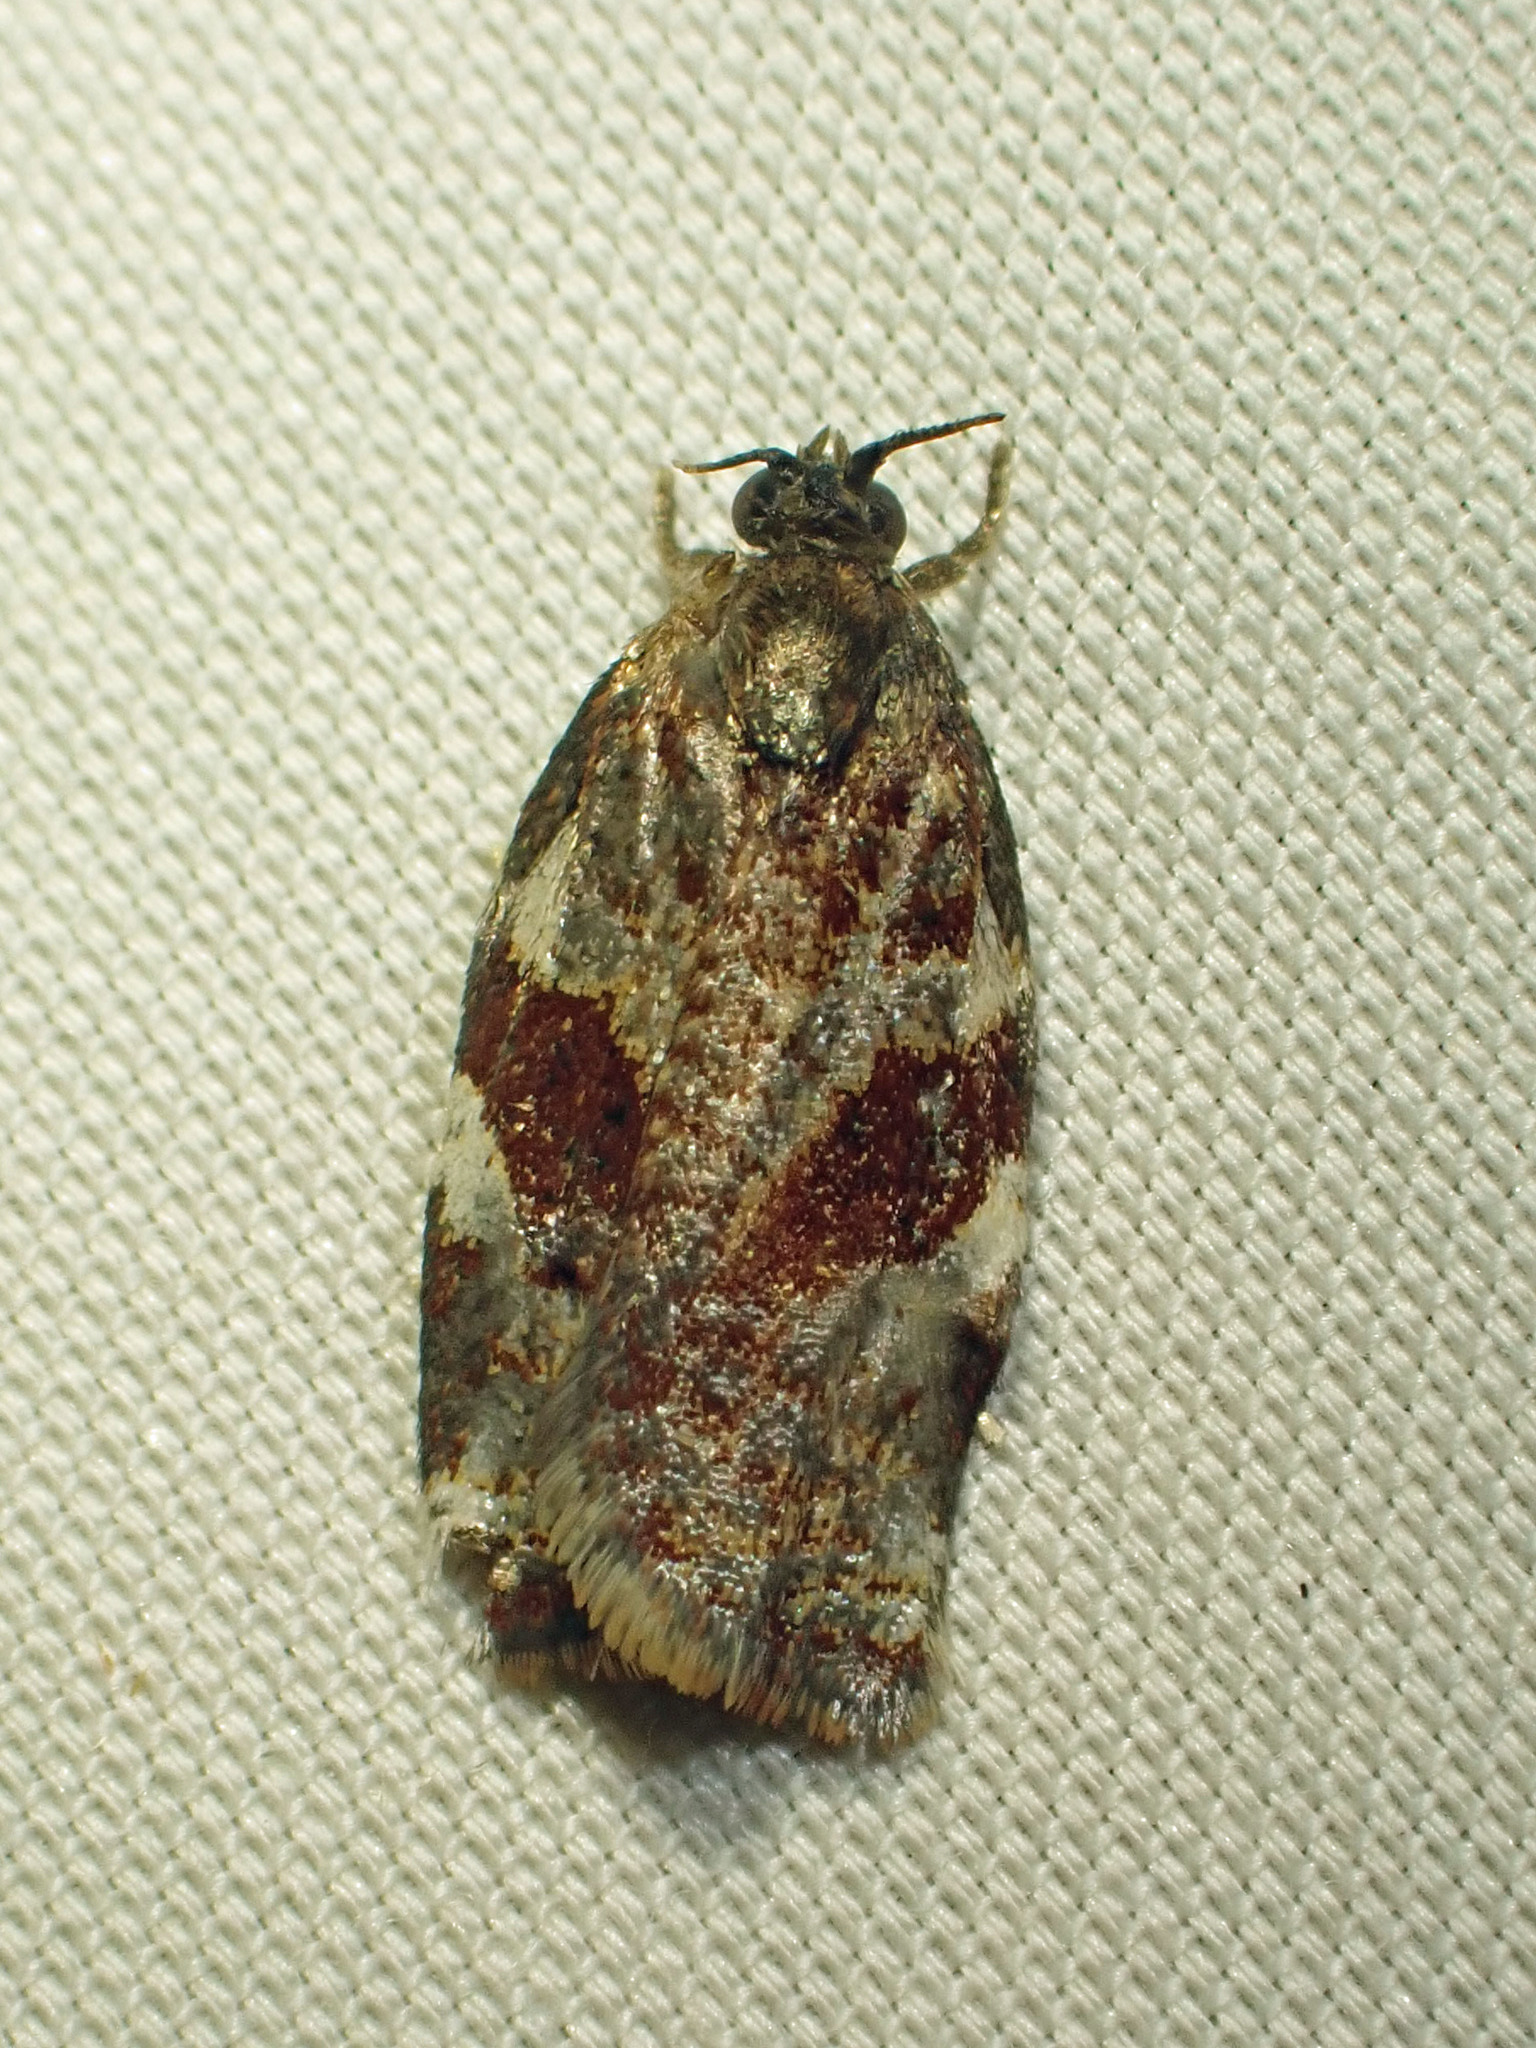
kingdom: Animalia
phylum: Arthropoda
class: Insecta
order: Lepidoptera
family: Tortricidae
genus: Archips
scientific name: Archips myricana
